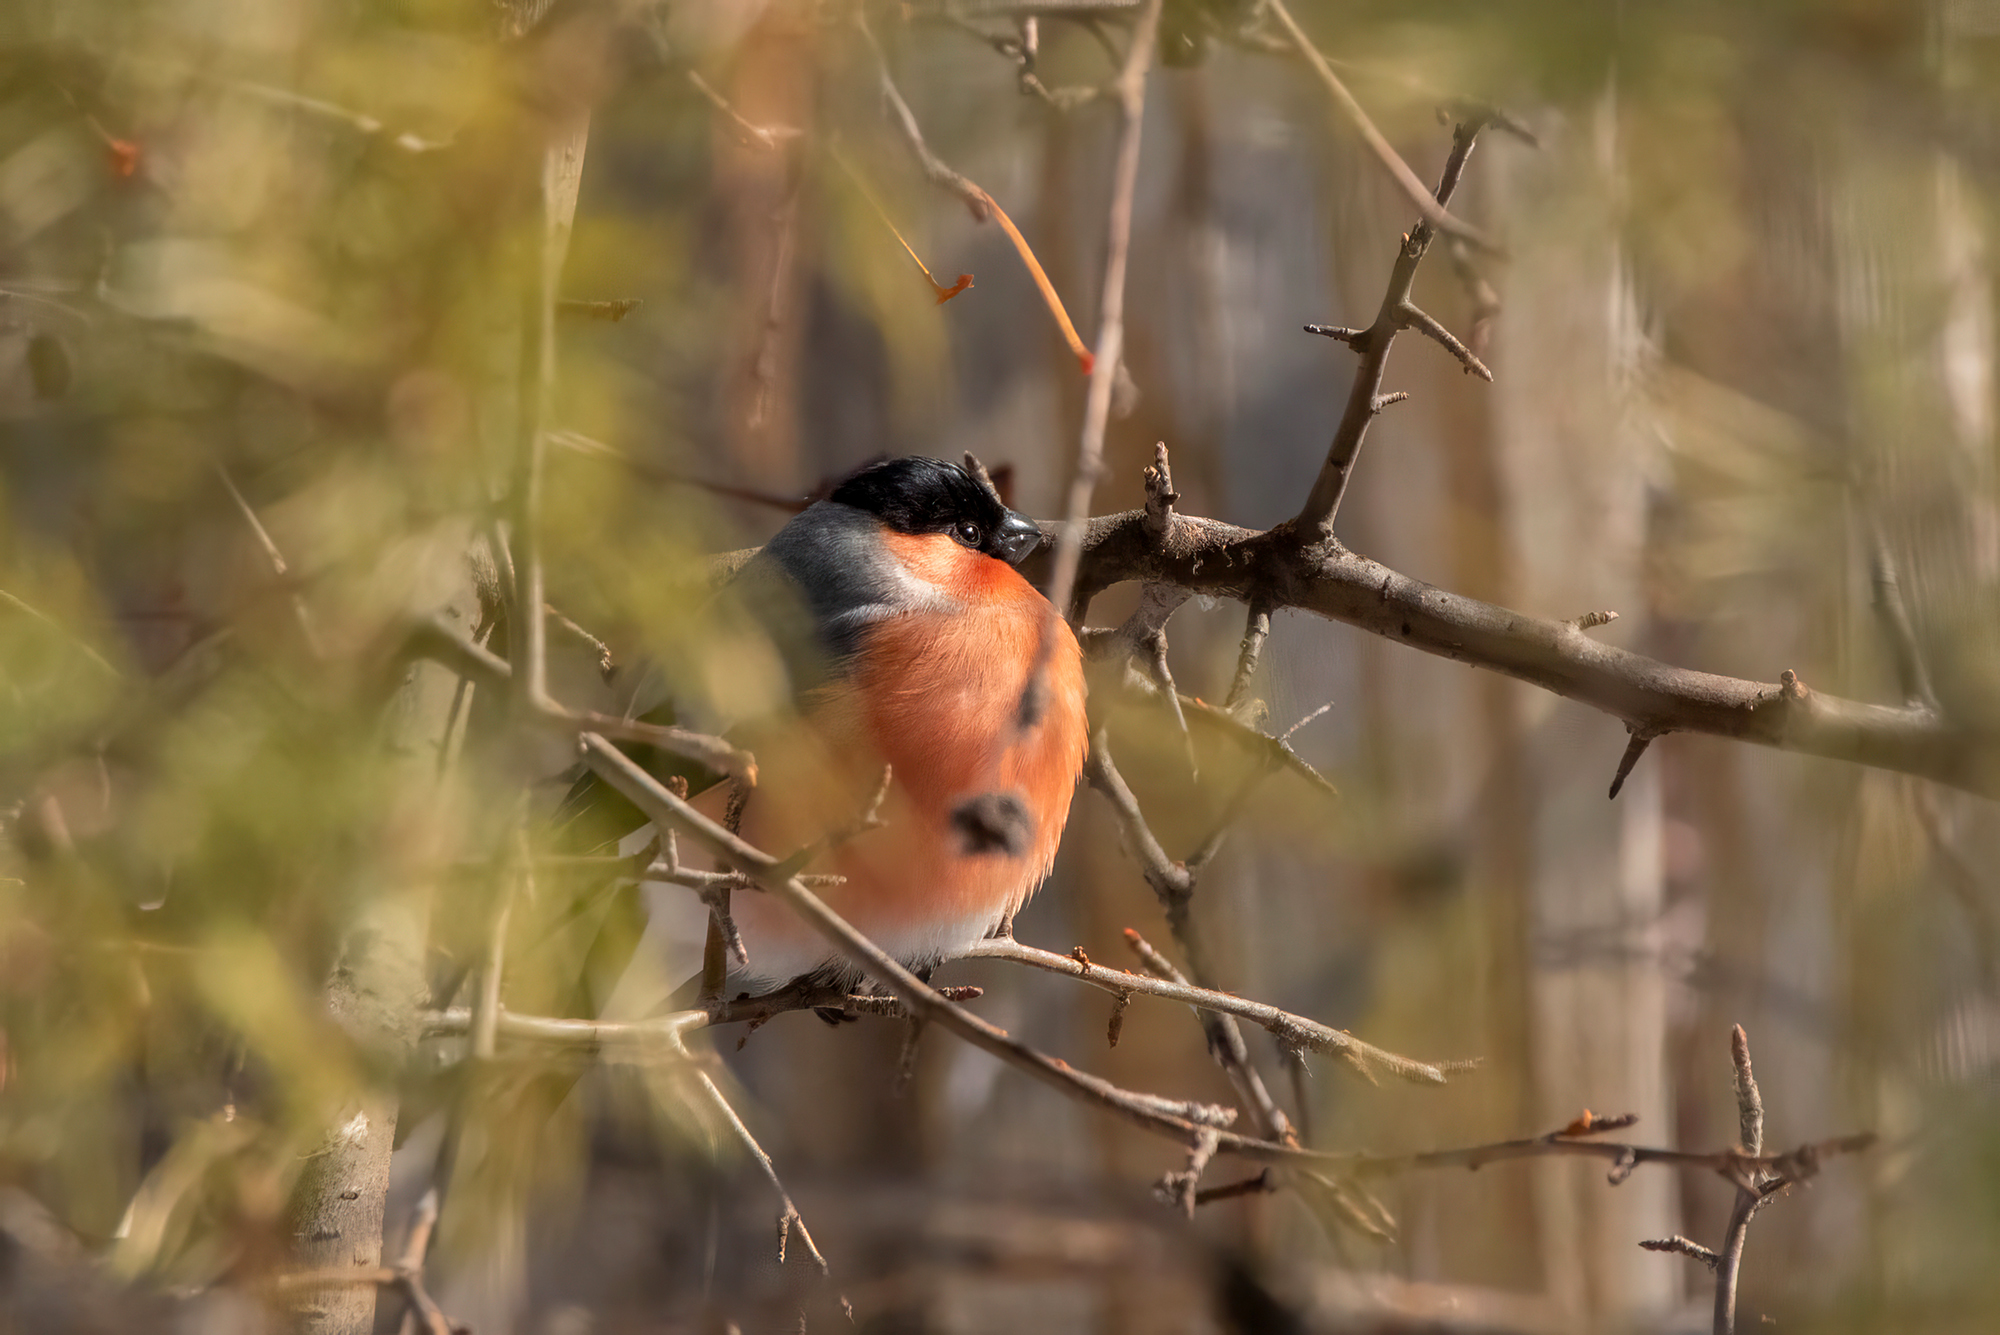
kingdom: Animalia
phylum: Chordata
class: Aves
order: Passeriformes
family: Fringillidae
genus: Pyrrhula
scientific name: Pyrrhula pyrrhula
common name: Eurasian bullfinch
